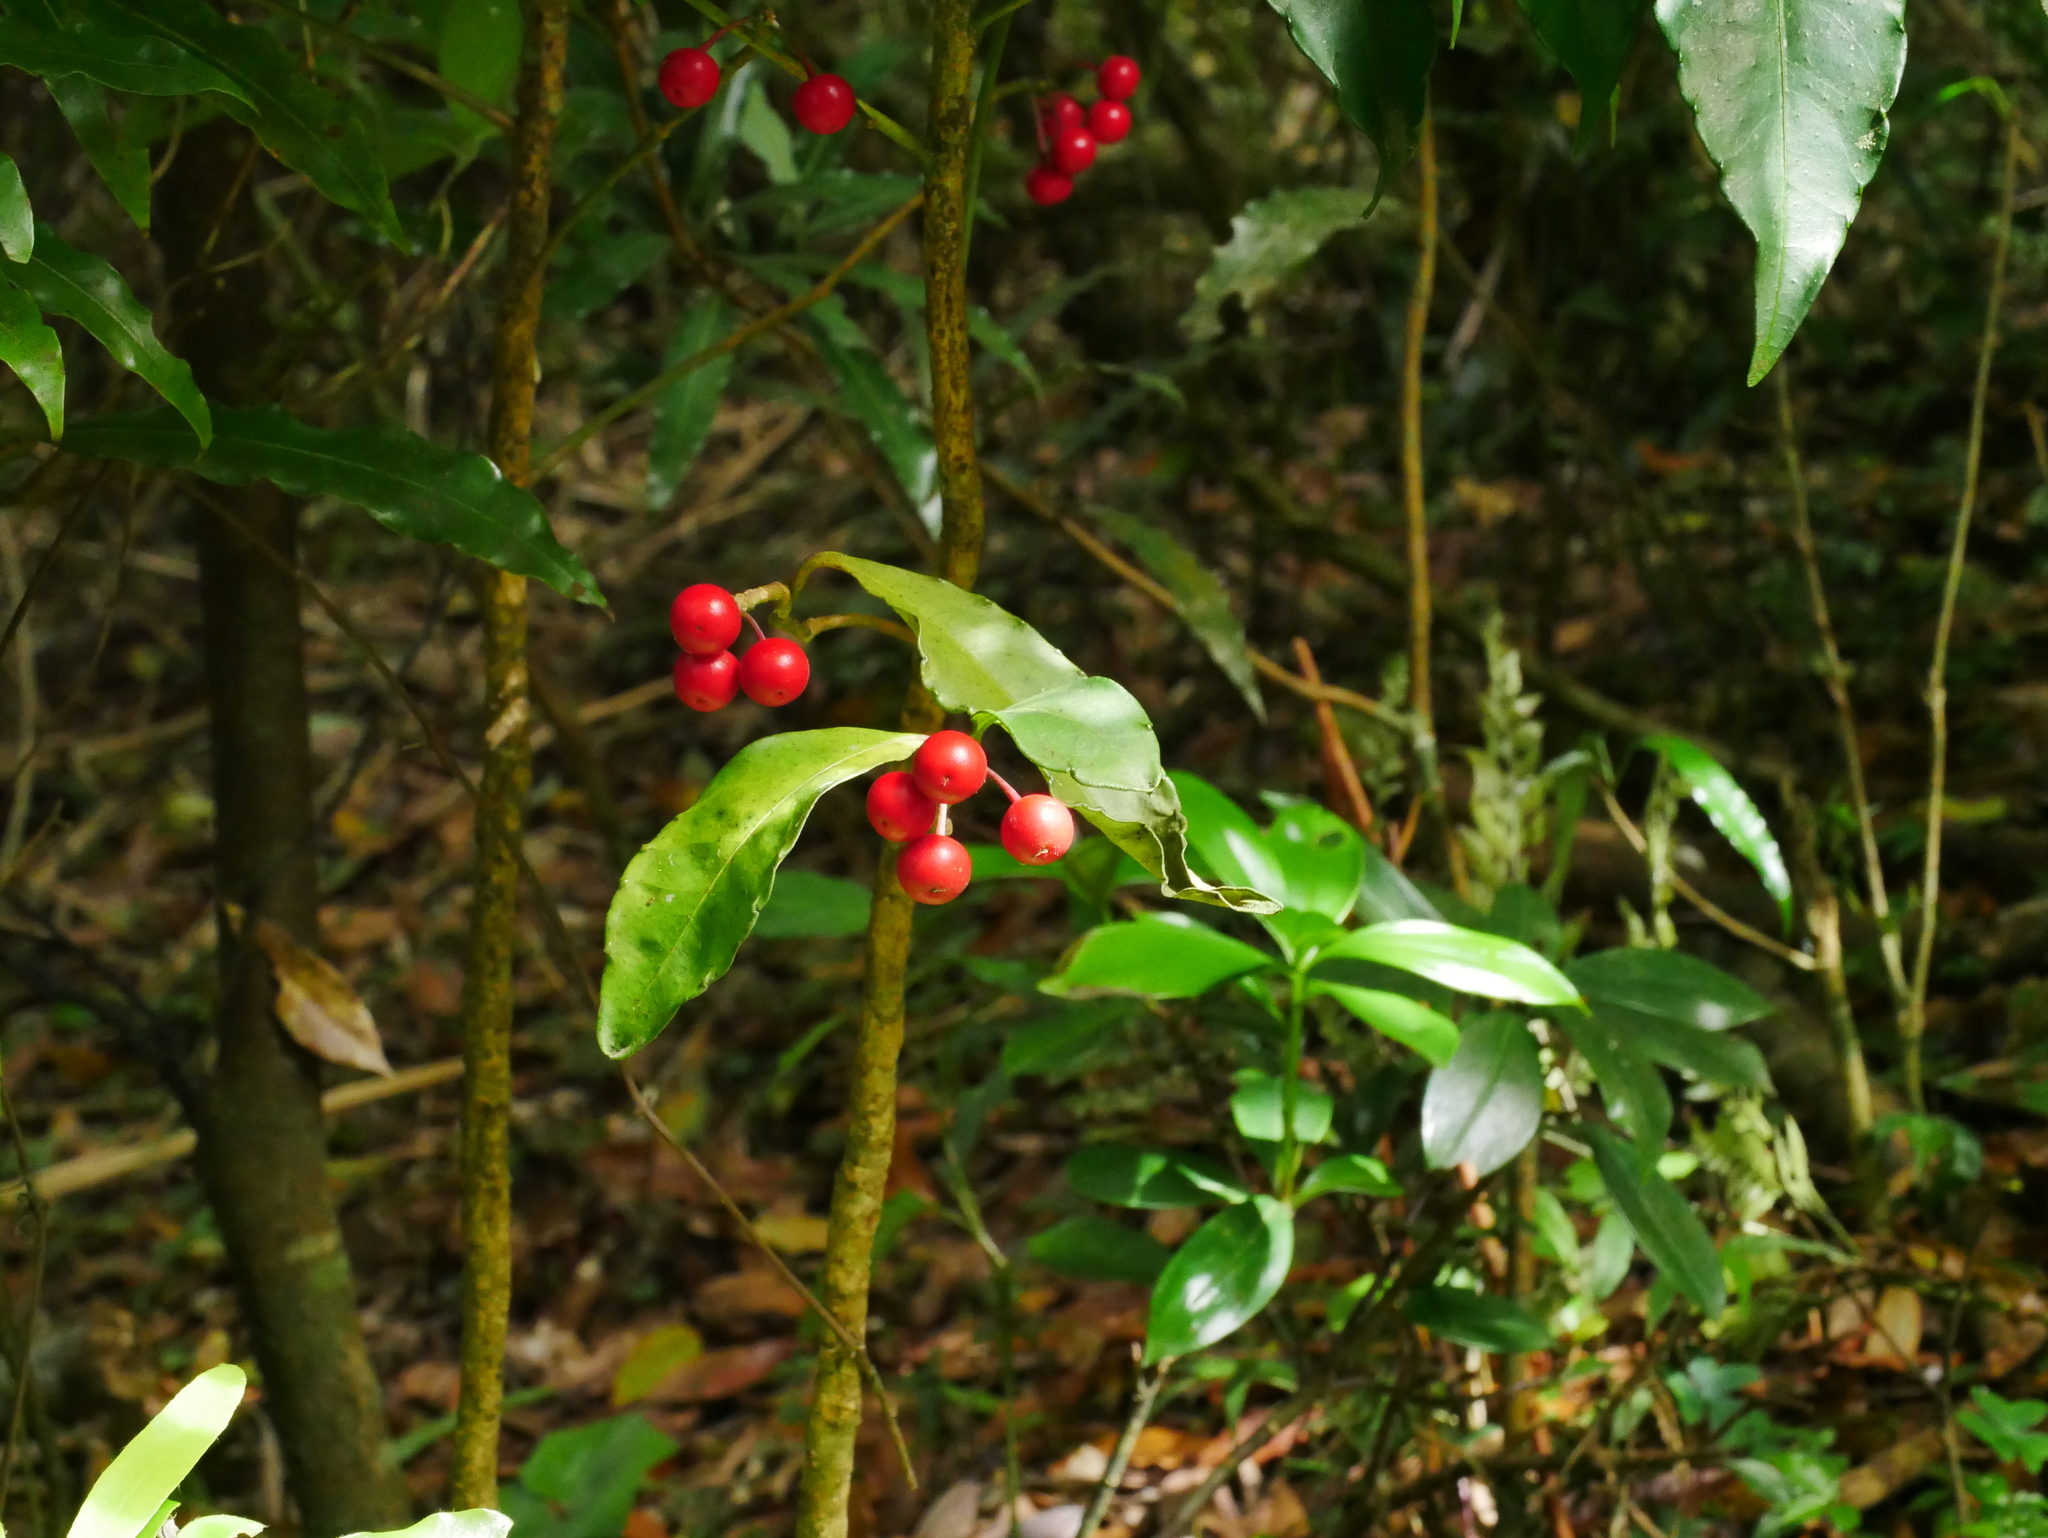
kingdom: Plantae
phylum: Tracheophyta
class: Magnoliopsida
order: Ericales
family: Primulaceae
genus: Ardisia
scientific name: Ardisia crenata
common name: Hen's eyes
